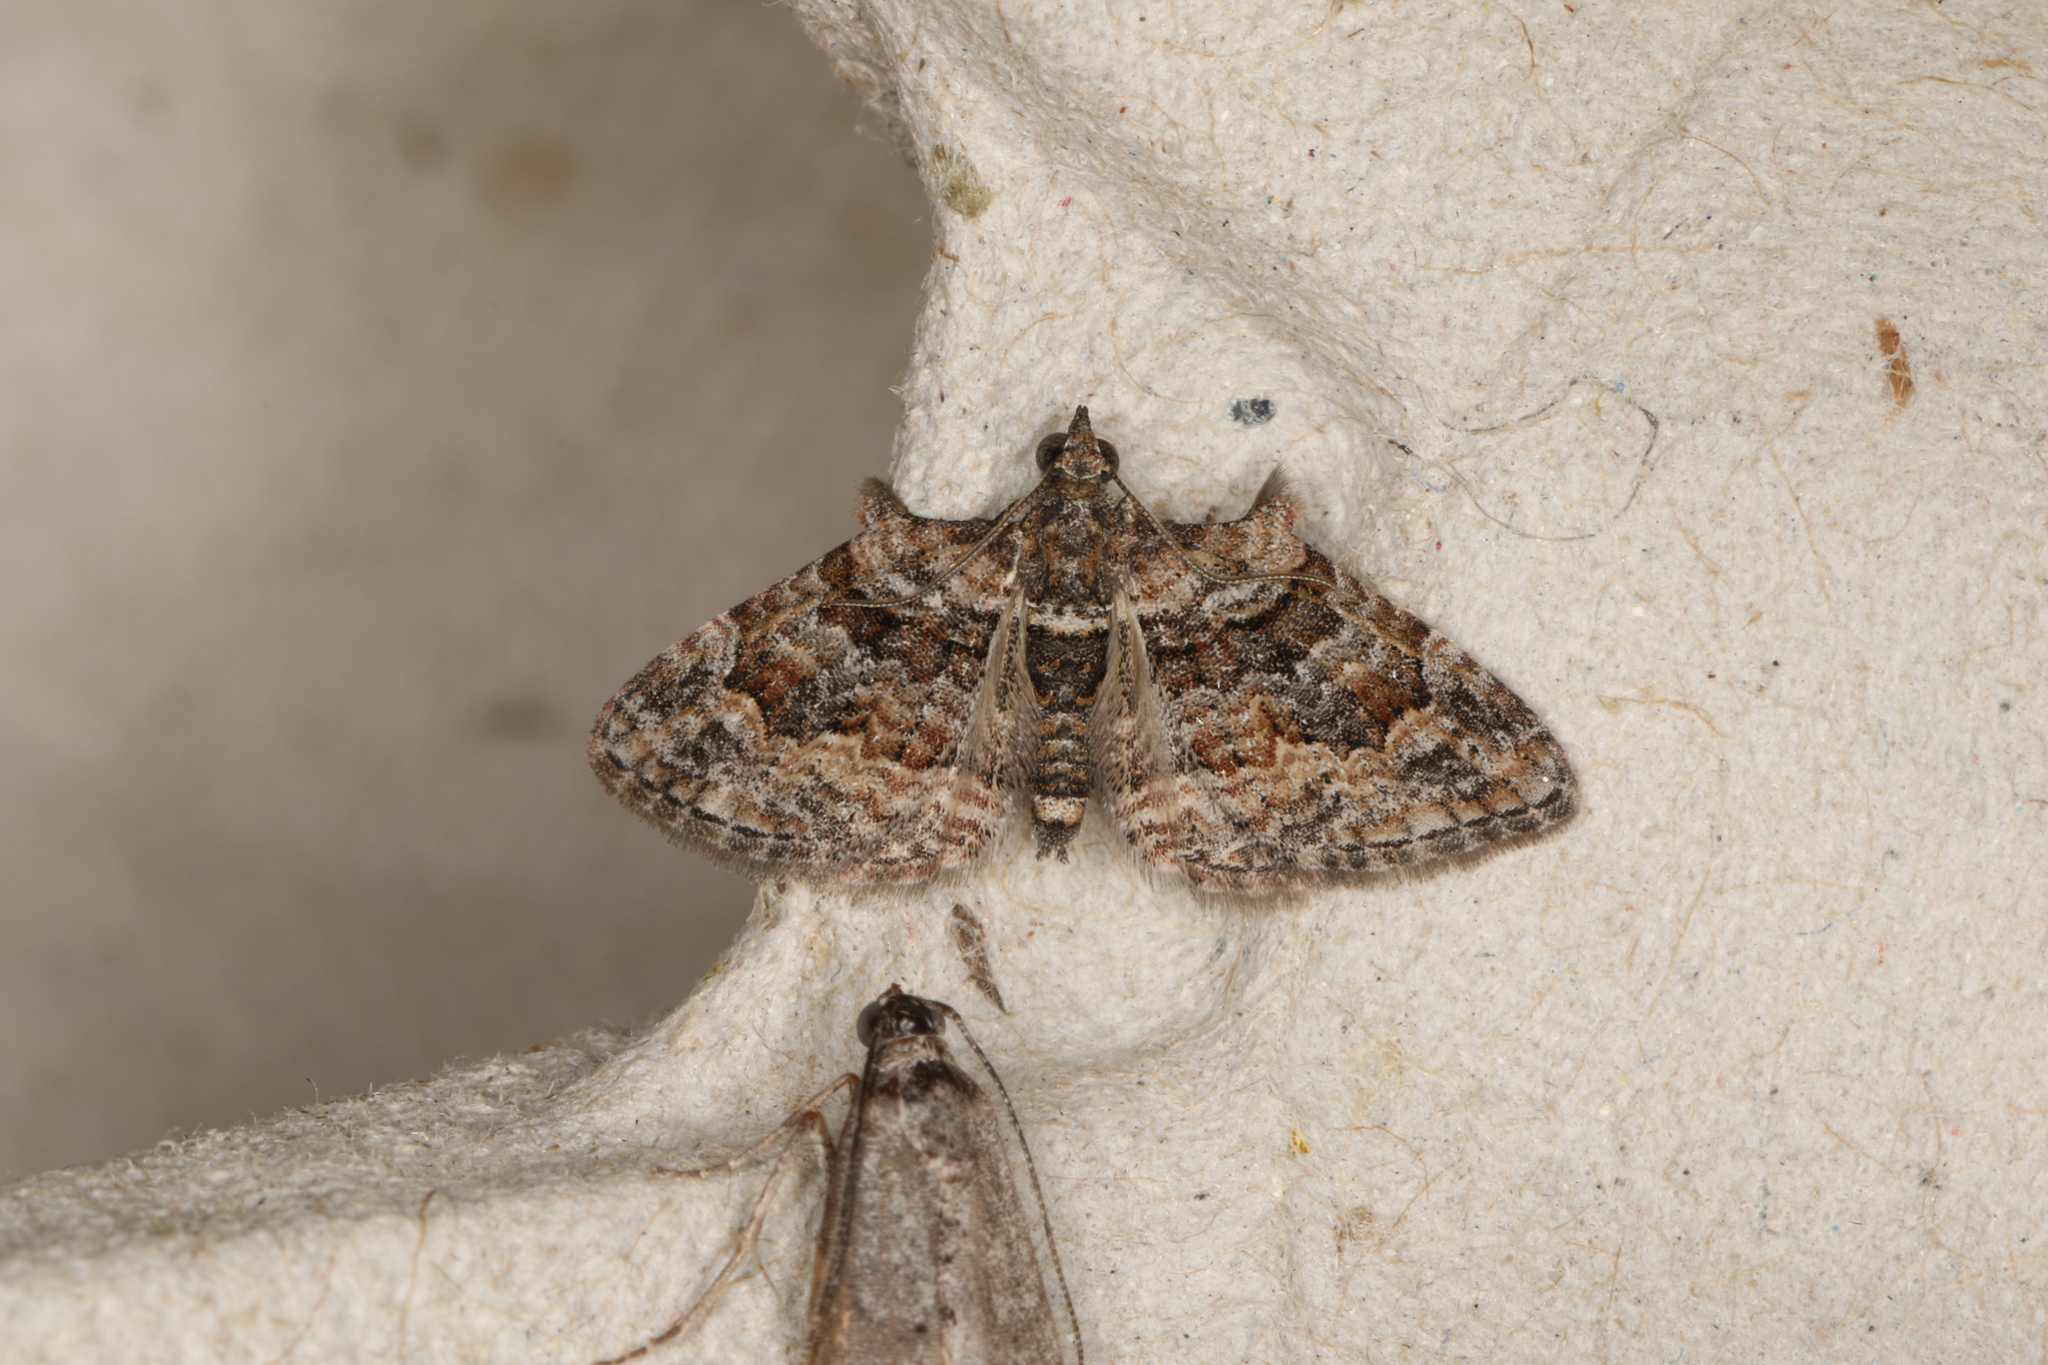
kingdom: Animalia
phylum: Arthropoda
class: Insecta
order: Lepidoptera
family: Geometridae
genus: Phrissogonus
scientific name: Phrissogonus laticostata
